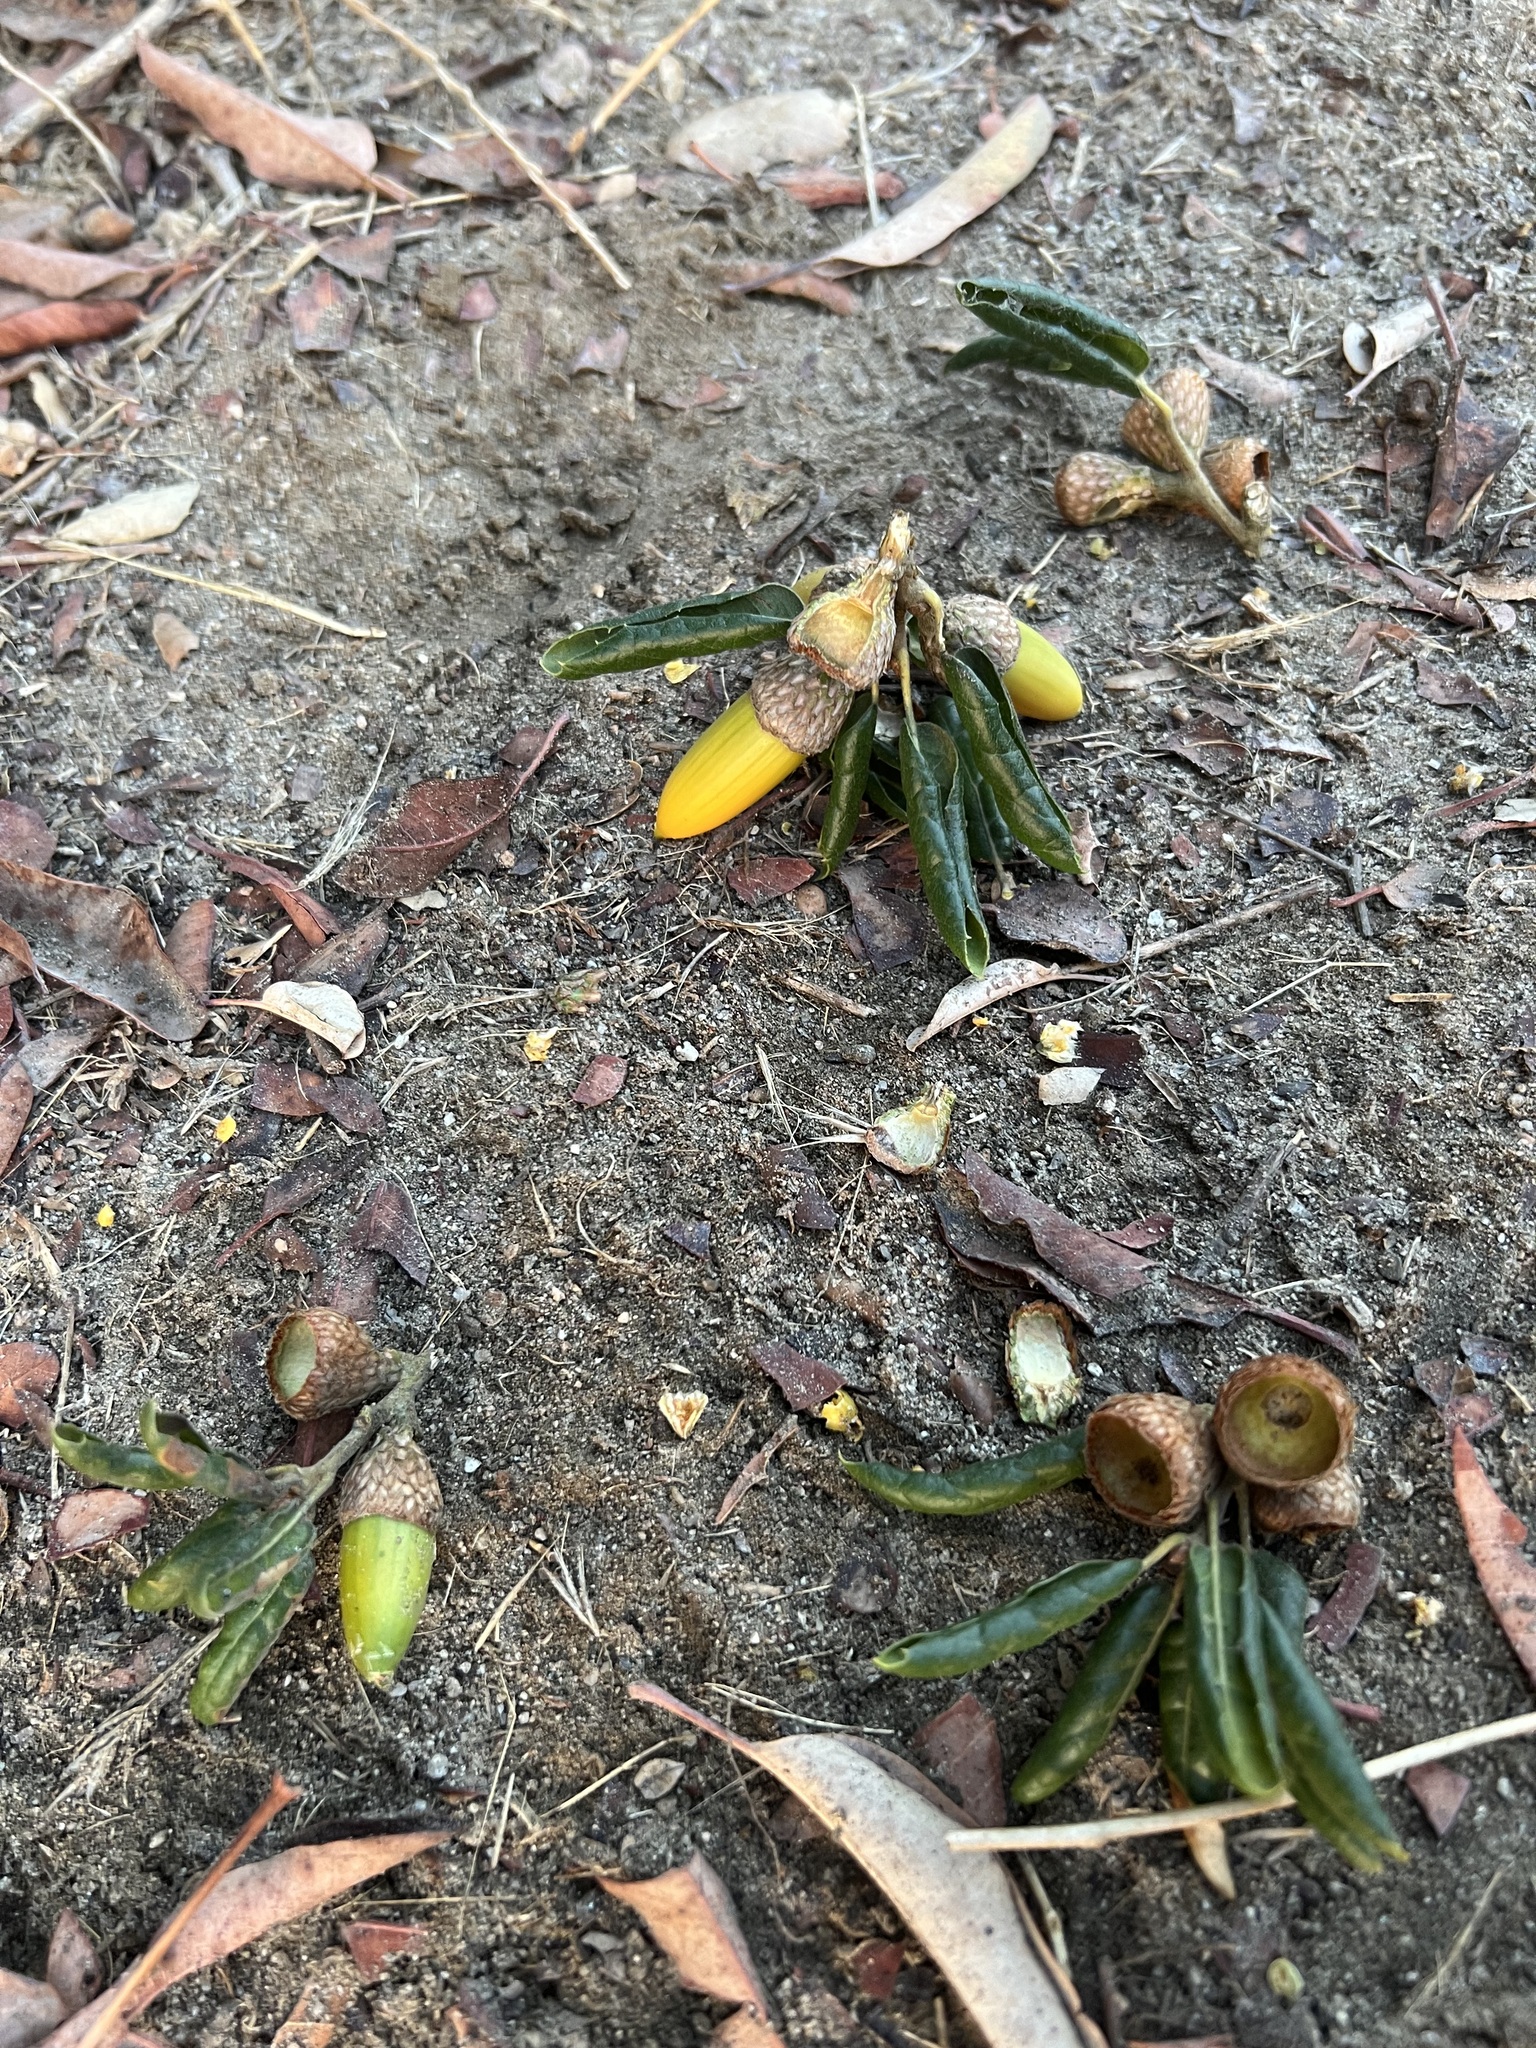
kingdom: Plantae
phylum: Tracheophyta
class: Magnoliopsida
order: Fagales
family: Fagaceae
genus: Quercus
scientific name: Quercus agrifolia
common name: California live oak
